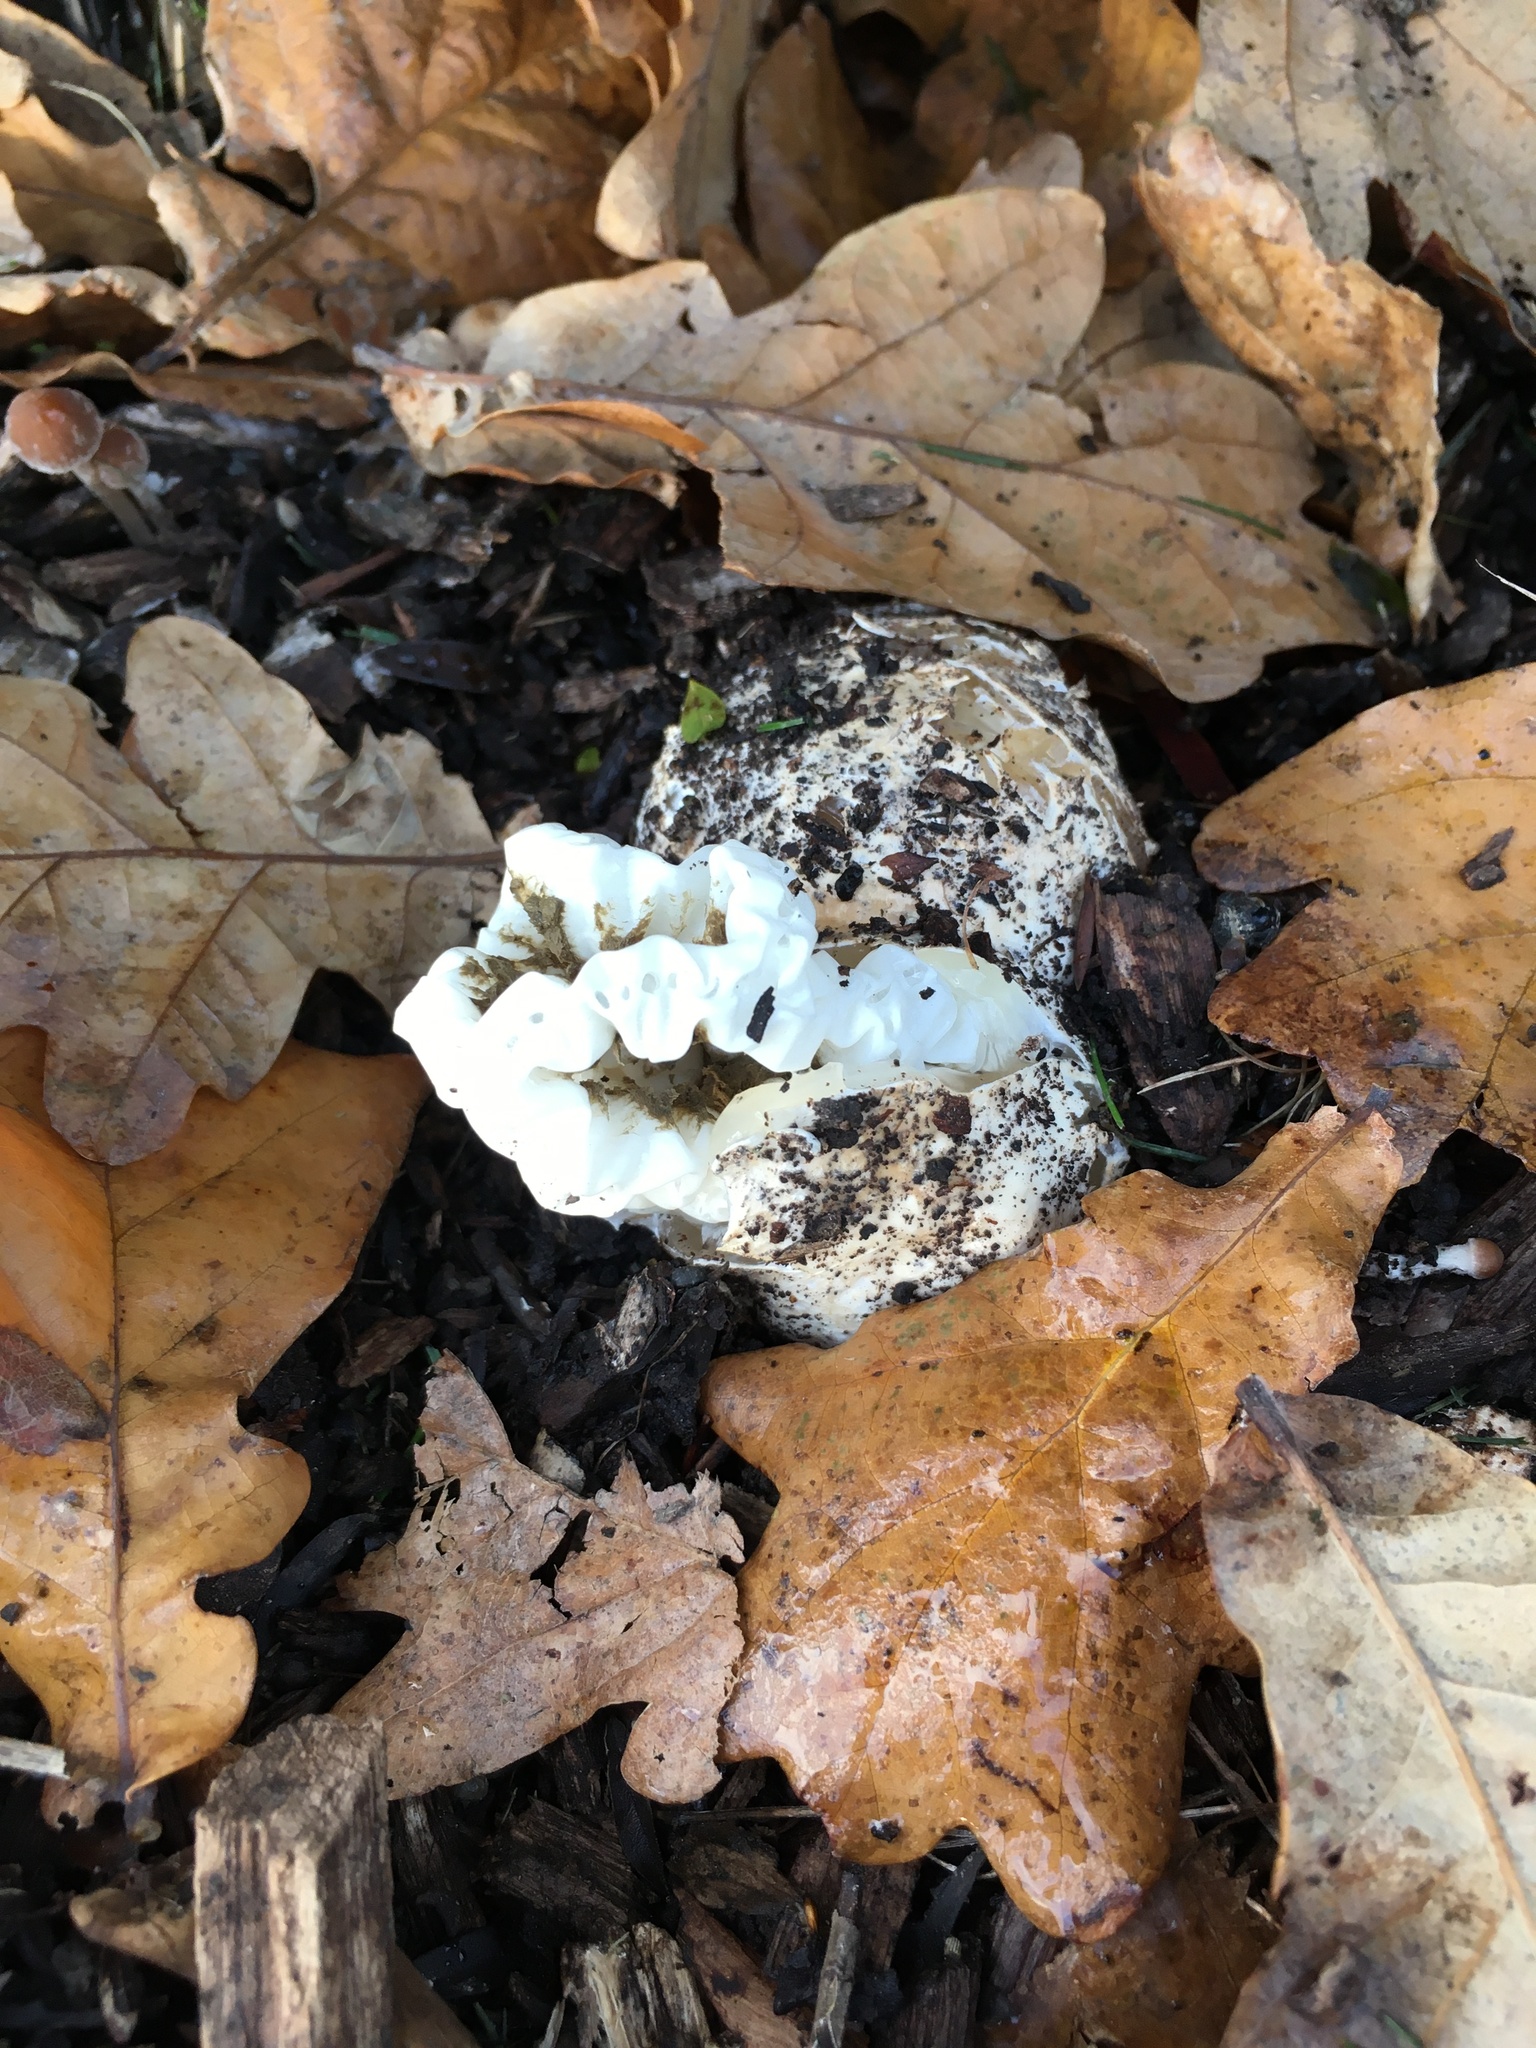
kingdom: Fungi
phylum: Basidiomycota
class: Agaricomycetes
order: Phallales
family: Phallaceae
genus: Ileodictyon
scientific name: Ileodictyon cibarium
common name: Basket fungus
